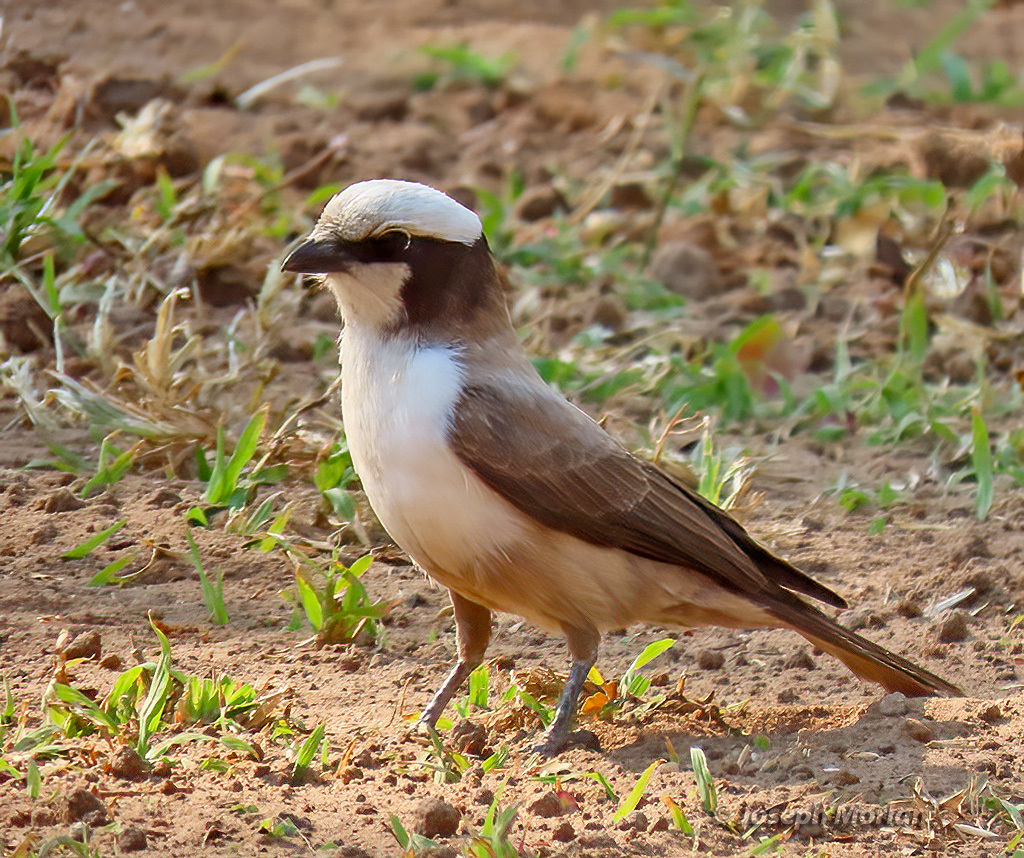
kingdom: Animalia
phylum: Chordata
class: Aves
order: Passeriformes
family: Laniidae
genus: Eurocephalus
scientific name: Eurocephalus anguitimens
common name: Southern white-crowned shrike
